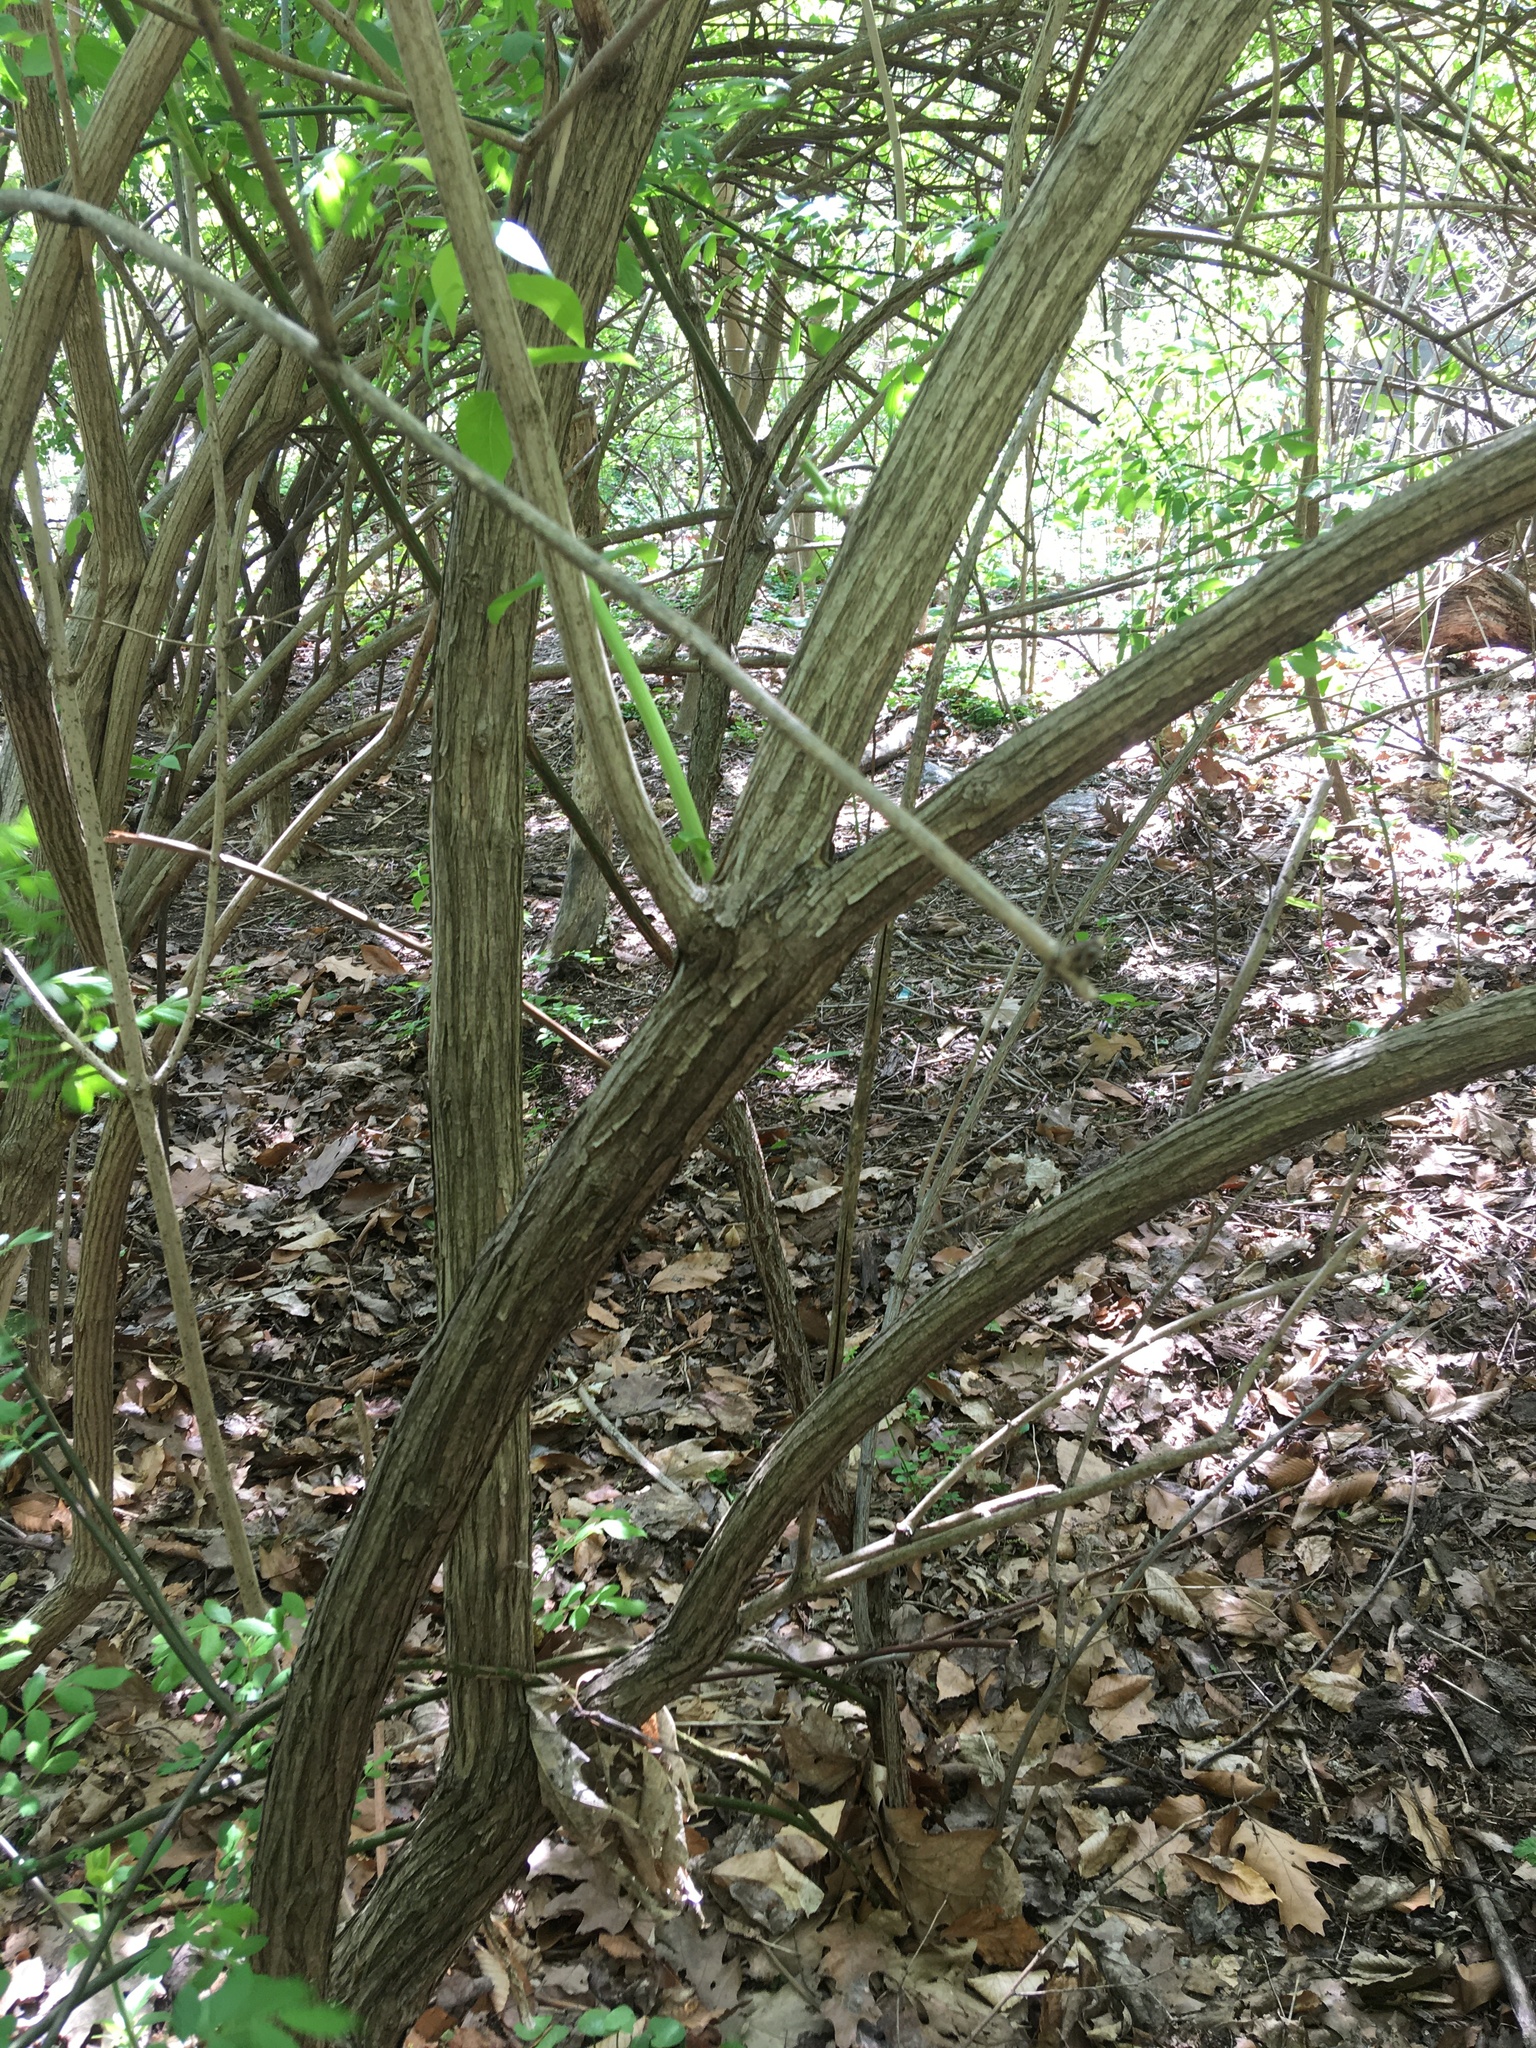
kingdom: Plantae
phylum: Tracheophyta
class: Magnoliopsida
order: Dipsacales
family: Caprifoliaceae
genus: Lonicera
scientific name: Lonicera maackii
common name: Amur honeysuckle
